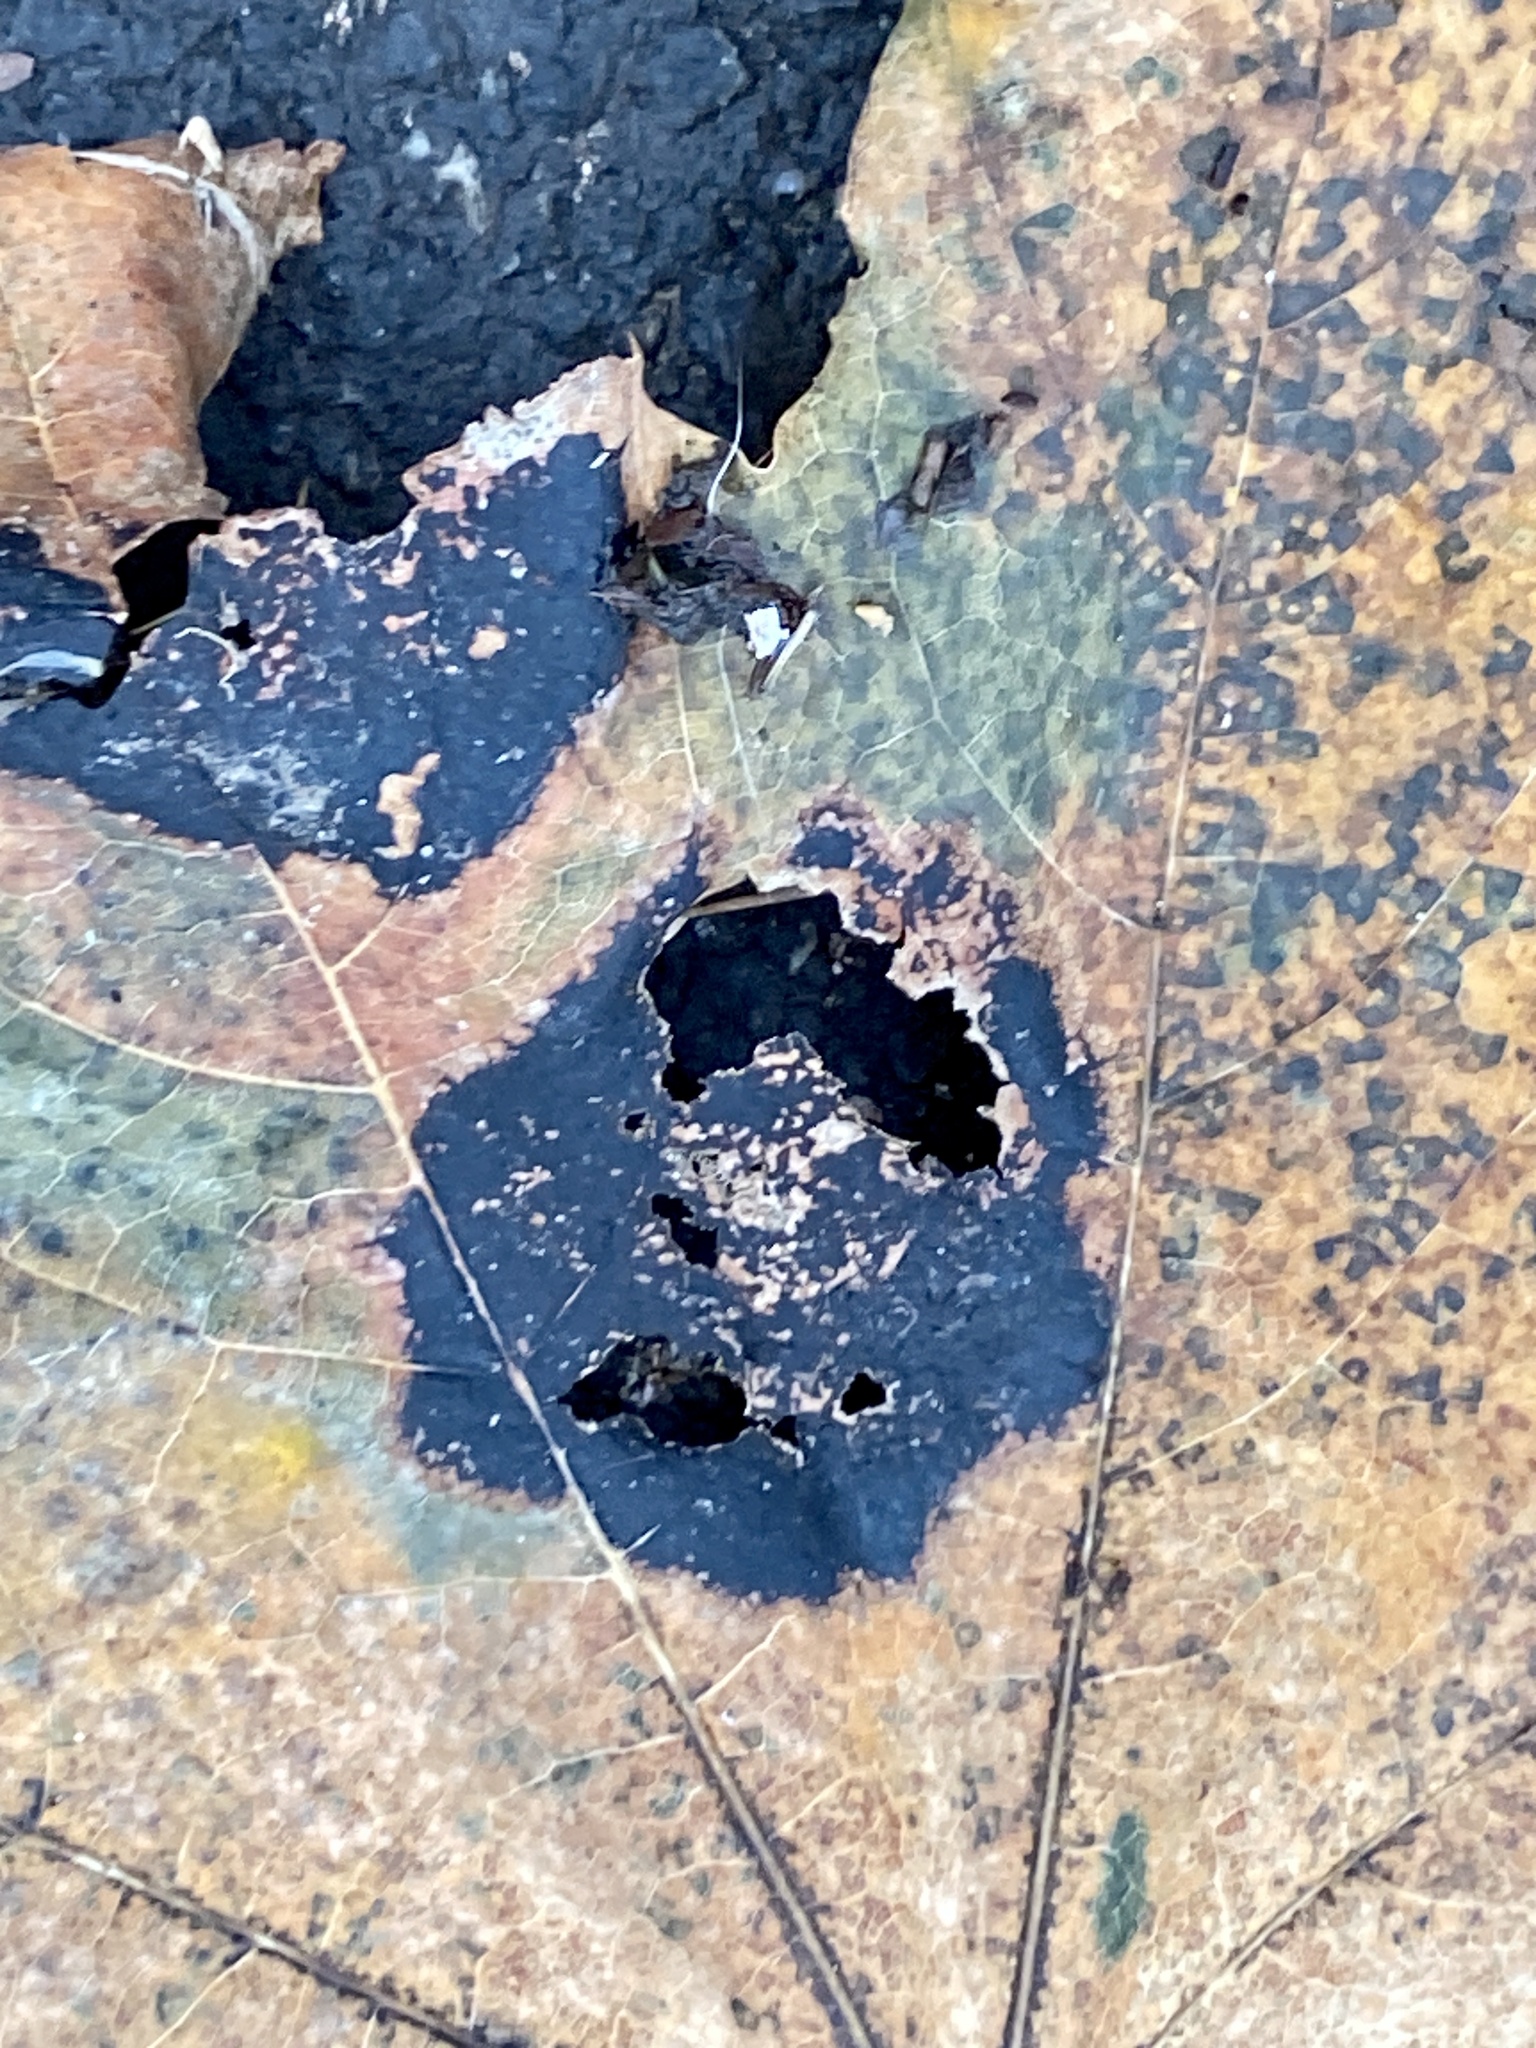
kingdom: Fungi
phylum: Ascomycota
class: Leotiomycetes
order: Rhytismatales
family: Rhytismataceae
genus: Rhytisma
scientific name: Rhytisma acerinum
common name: European tar spot
